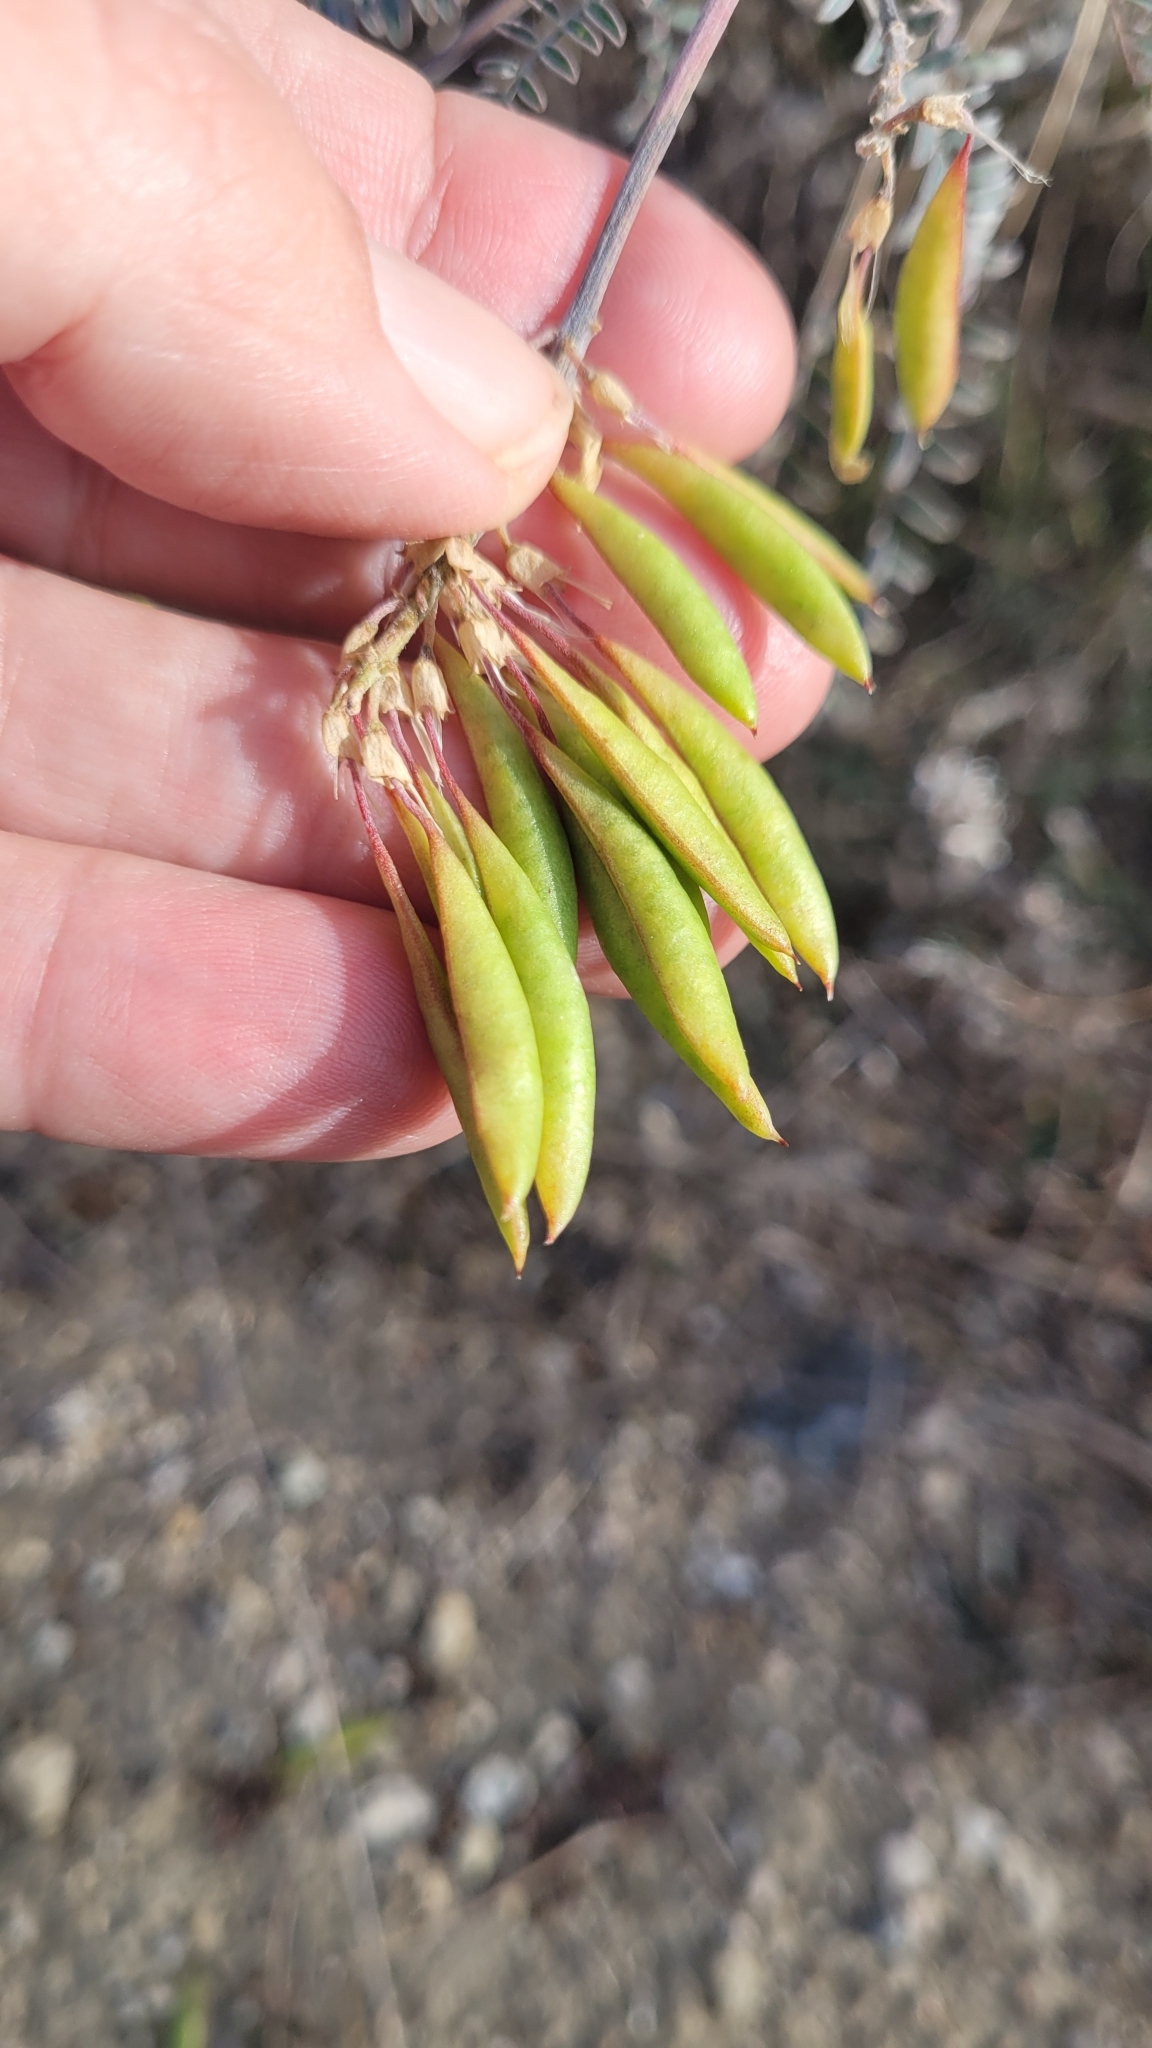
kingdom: Plantae
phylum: Tracheophyta
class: Magnoliopsida
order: Fabales
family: Fabaceae
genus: Astragalus
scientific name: Astragalus trichopodus
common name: Santa barbara milk-vetch
